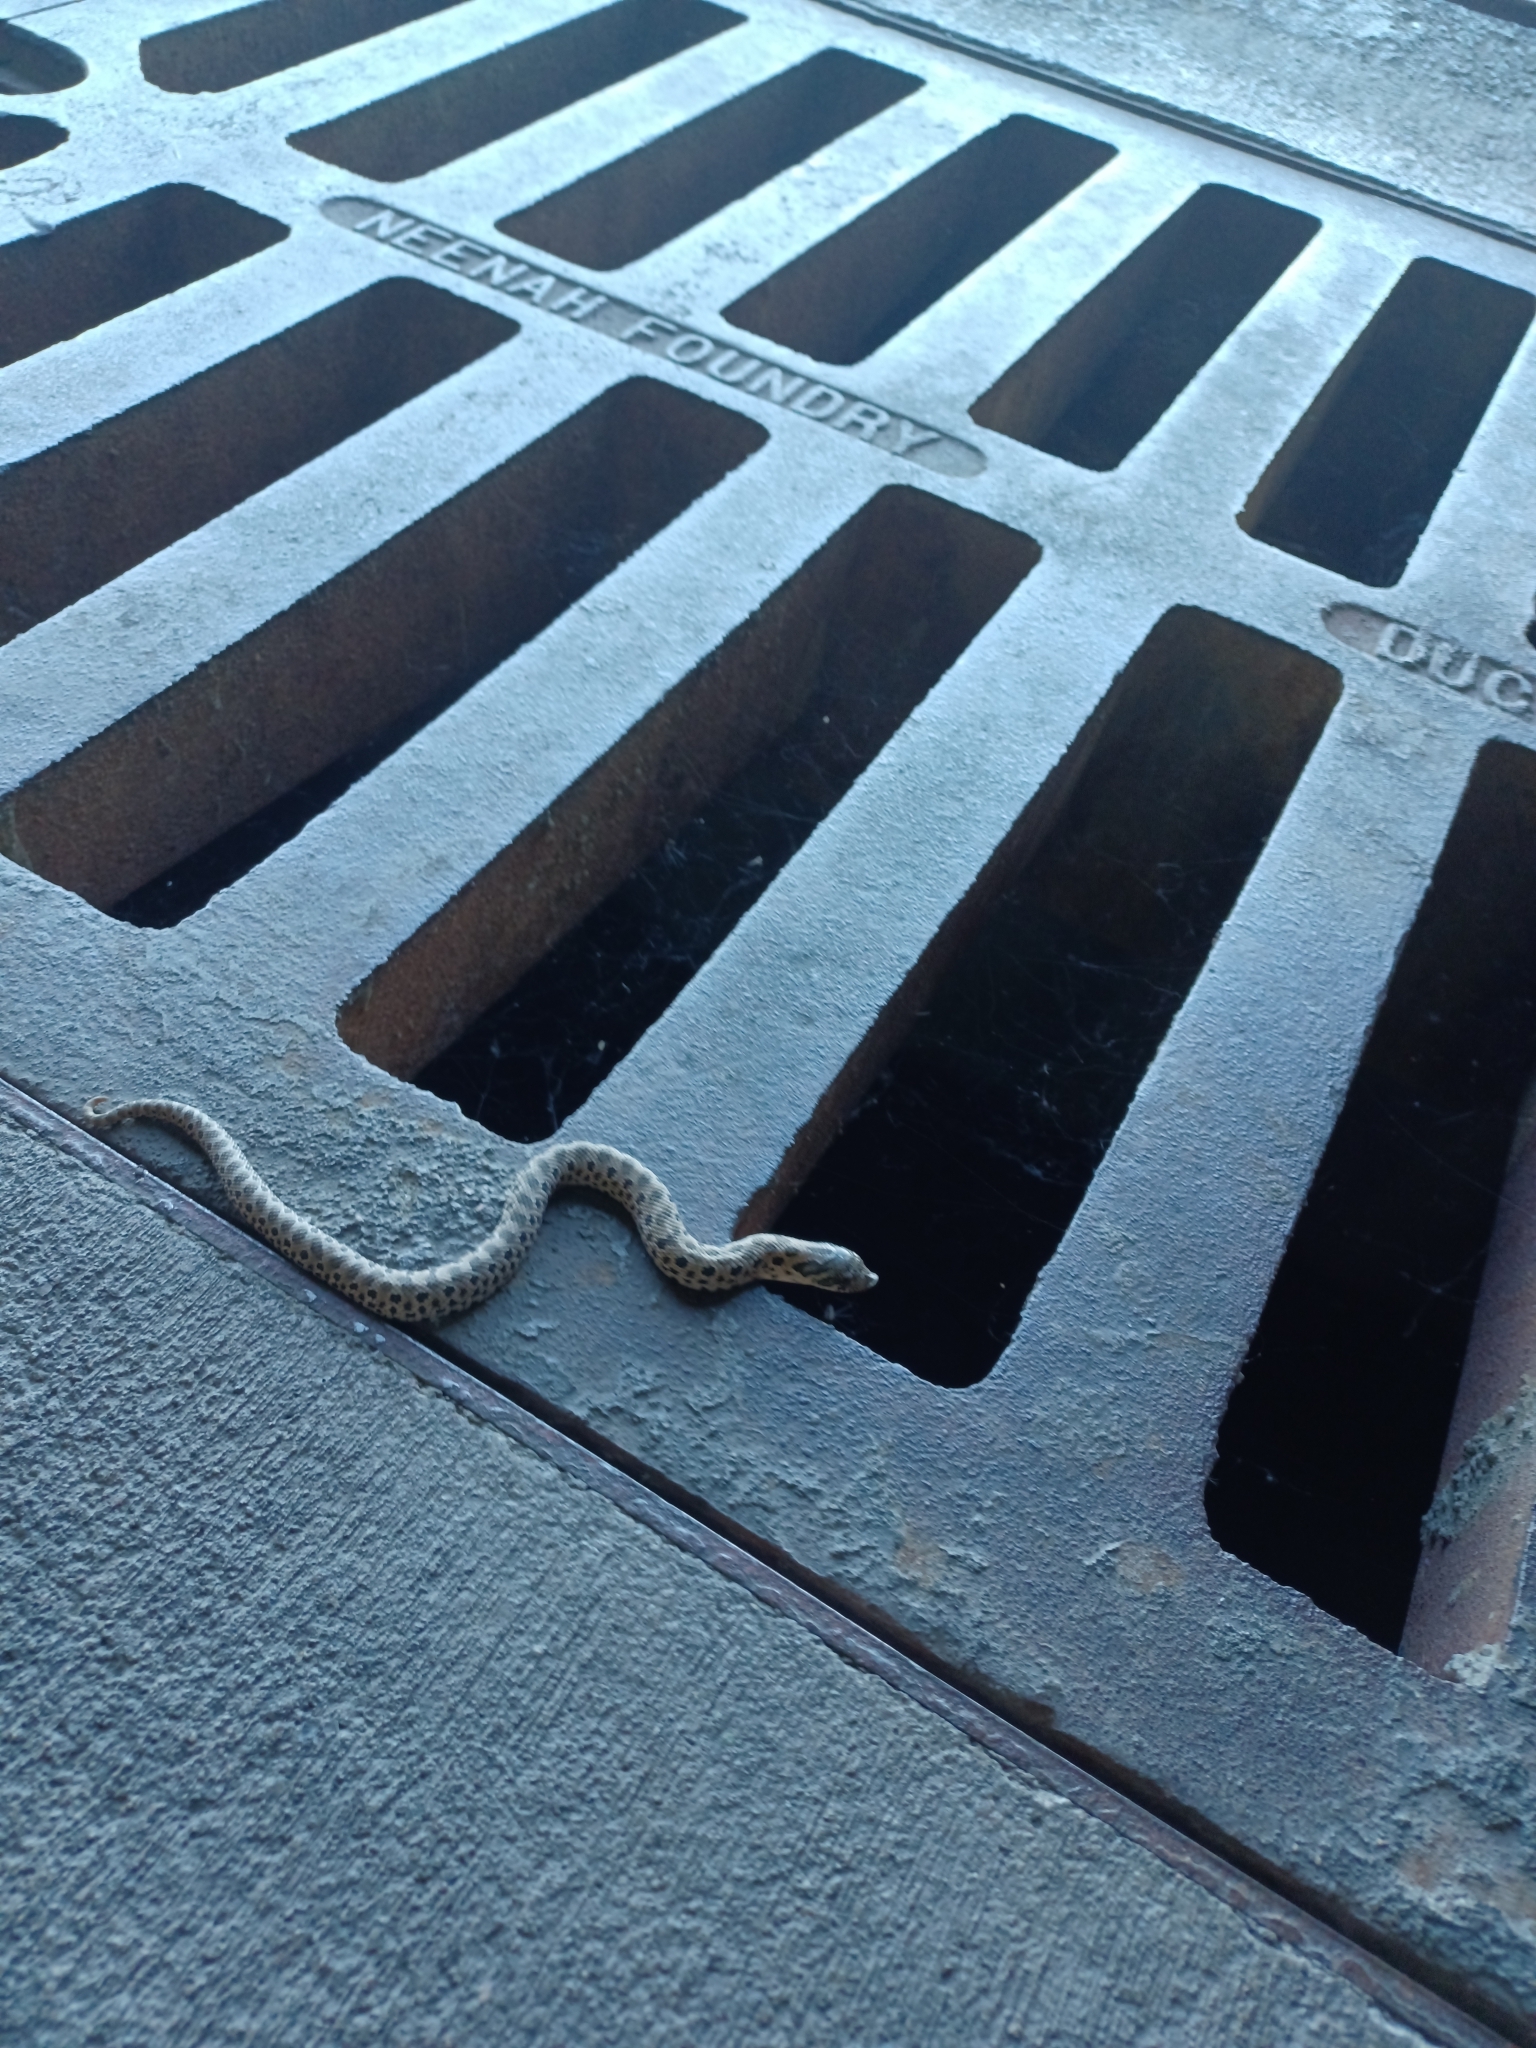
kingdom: Animalia
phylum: Chordata
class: Squamata
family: Colubridae
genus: Heterodon
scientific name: Heterodon nasicus
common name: Western hognose snake
